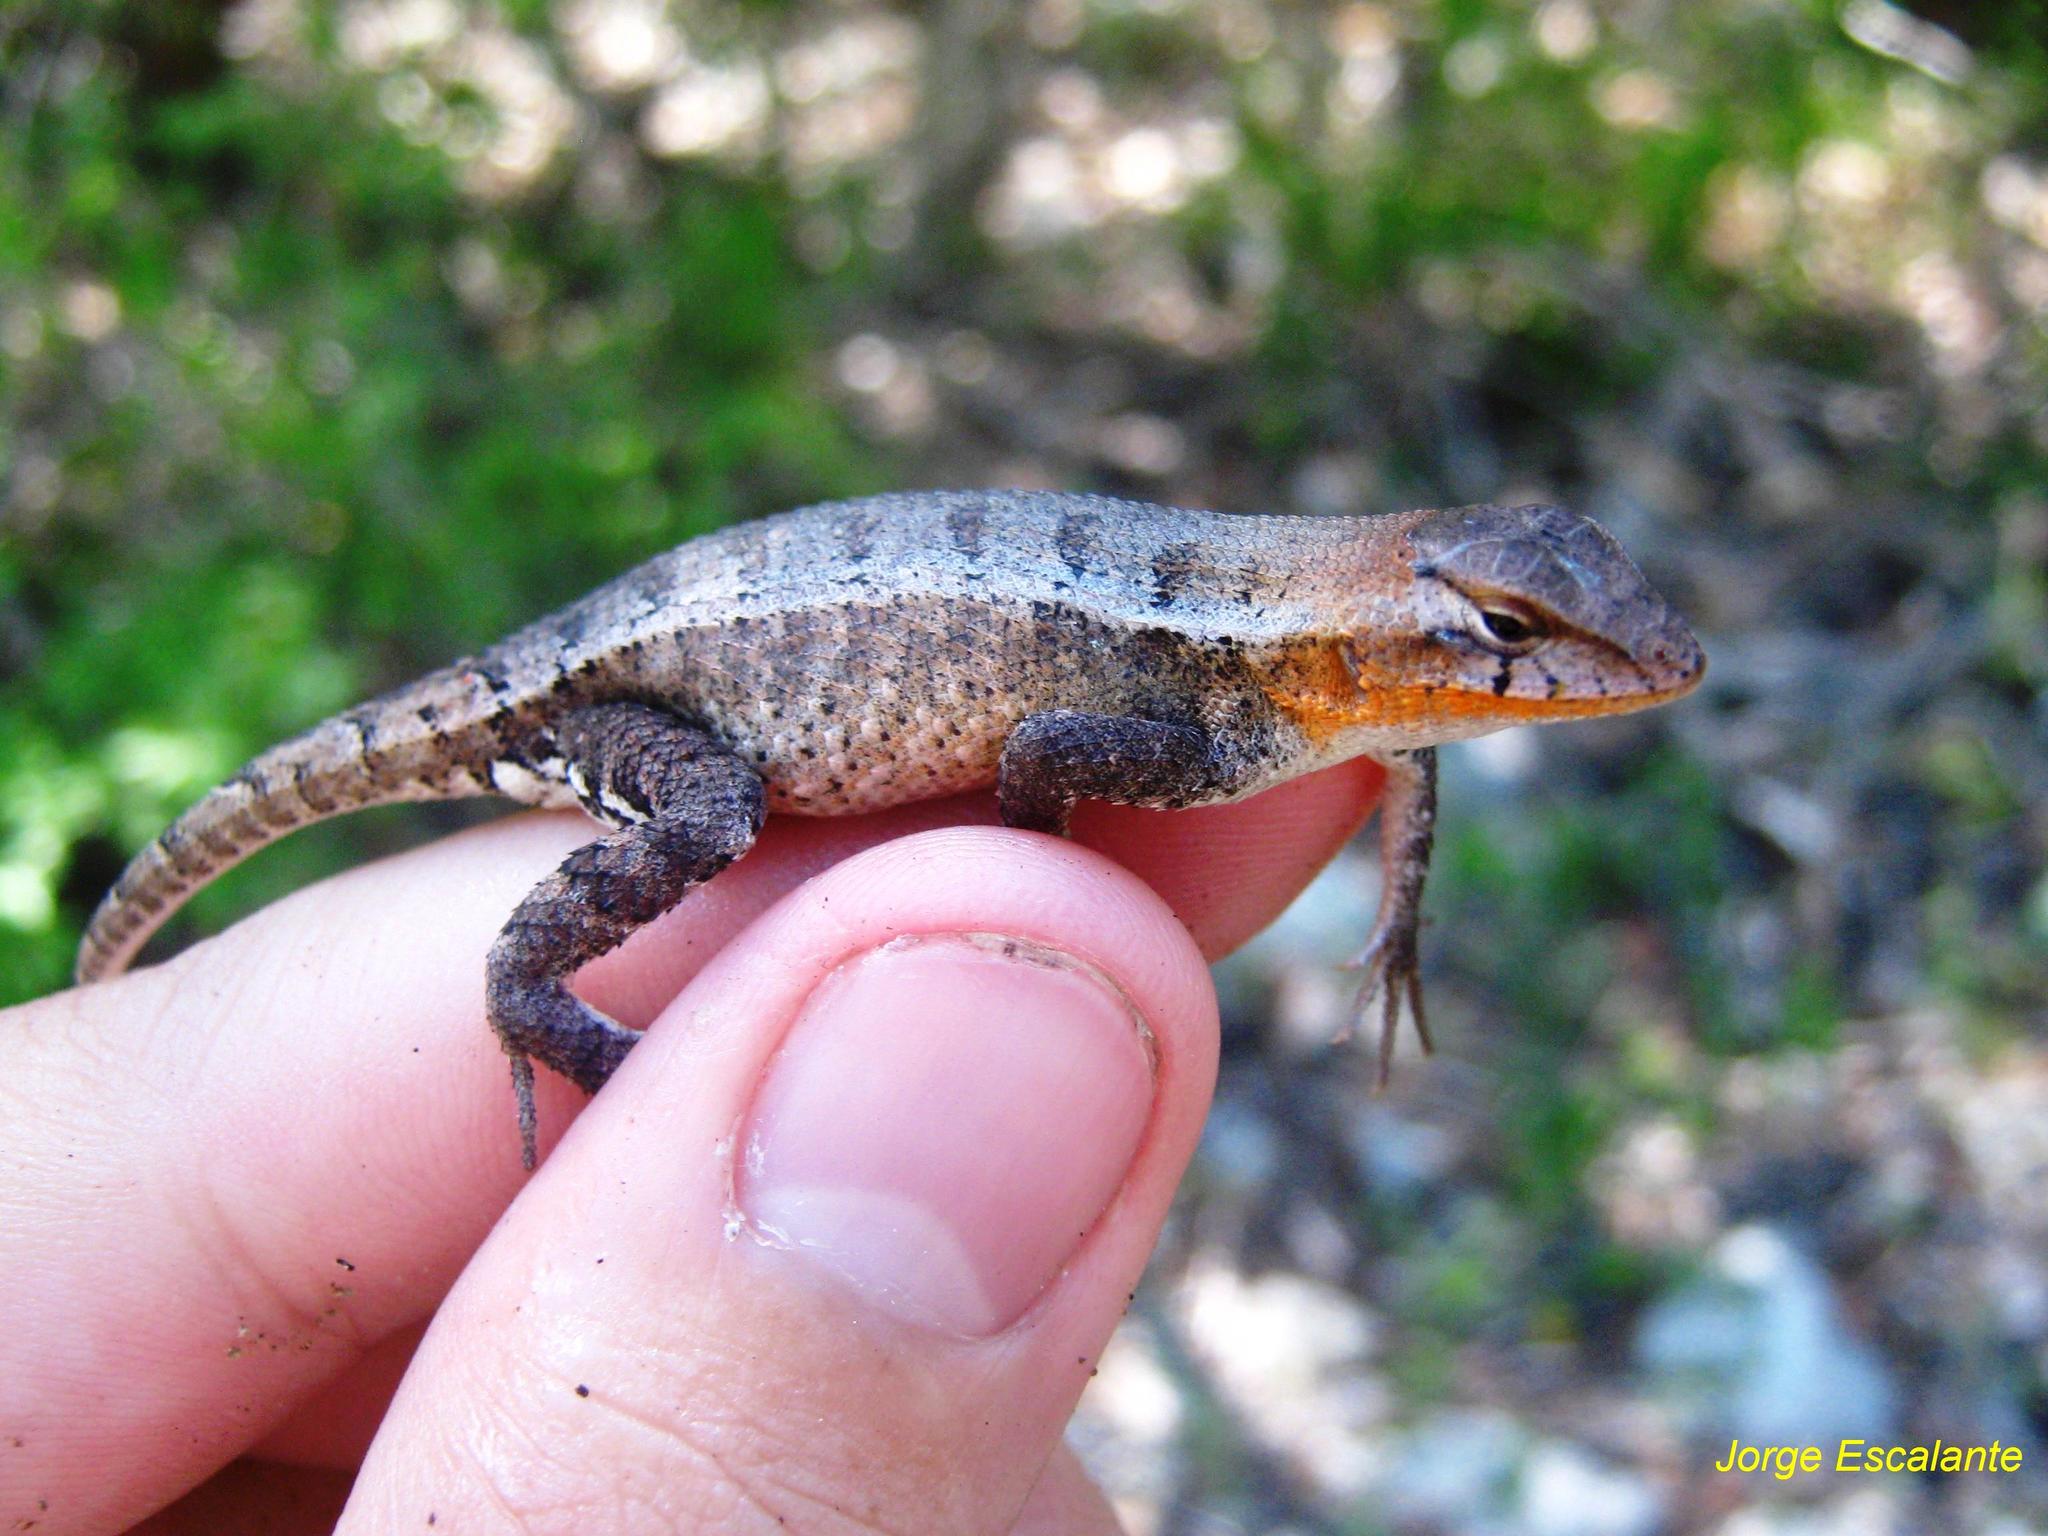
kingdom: Animalia
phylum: Chordata
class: Squamata
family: Phrynosomatidae
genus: Sceloporus
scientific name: Sceloporus chrysostictus
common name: Yellow-spotted spiny lizard
